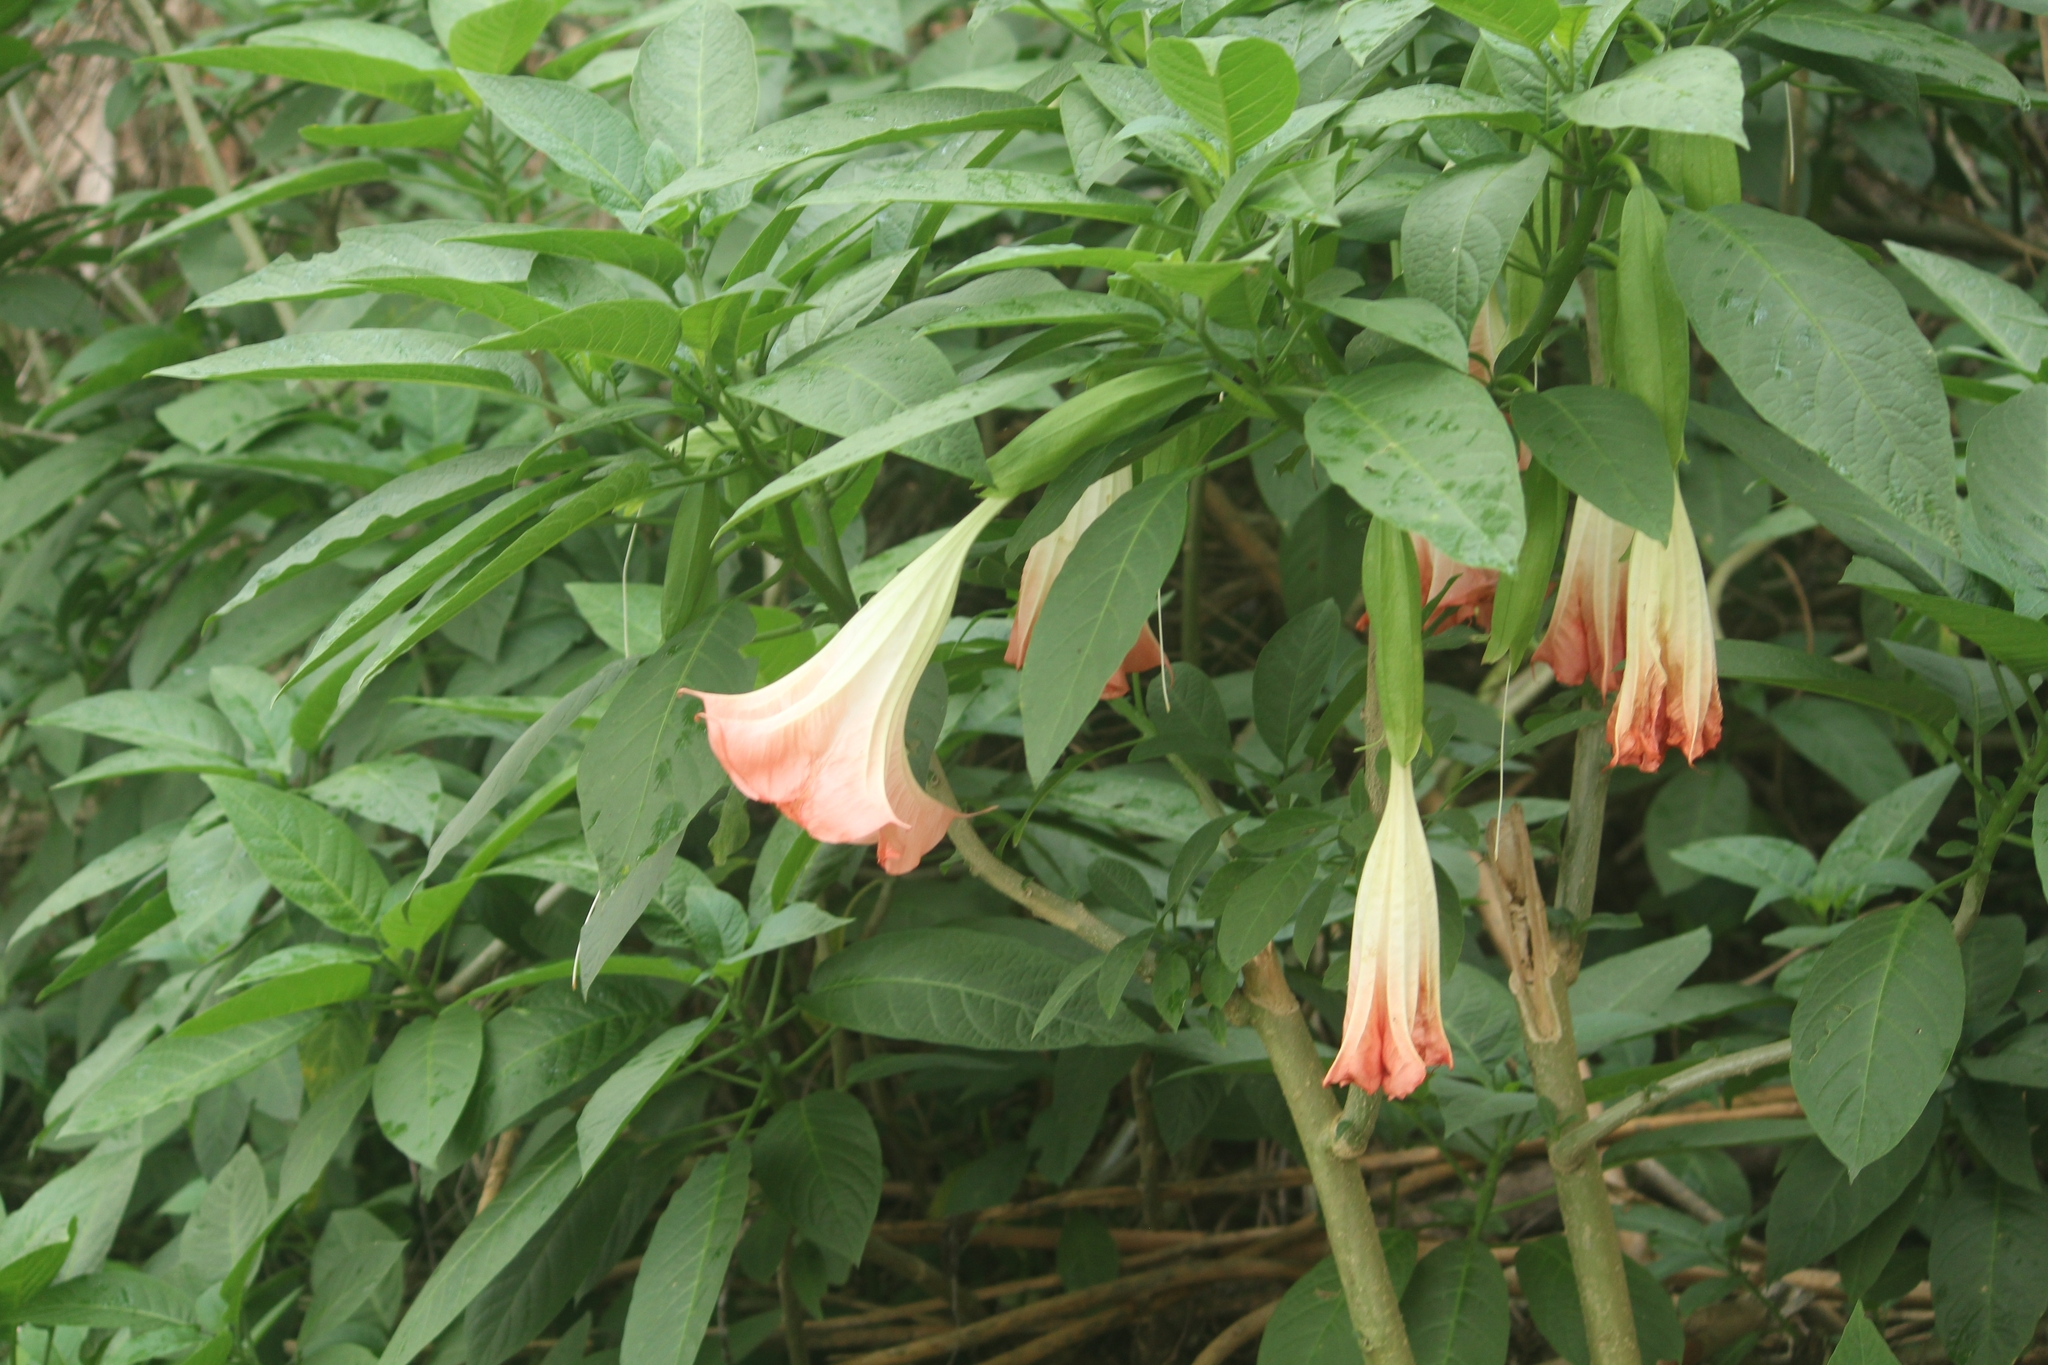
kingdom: Plantae
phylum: Tracheophyta
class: Magnoliopsida
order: Solanales
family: Solanaceae
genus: Brugmansia
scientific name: Brugmansia insignis
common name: Pink angel's-trumpet
